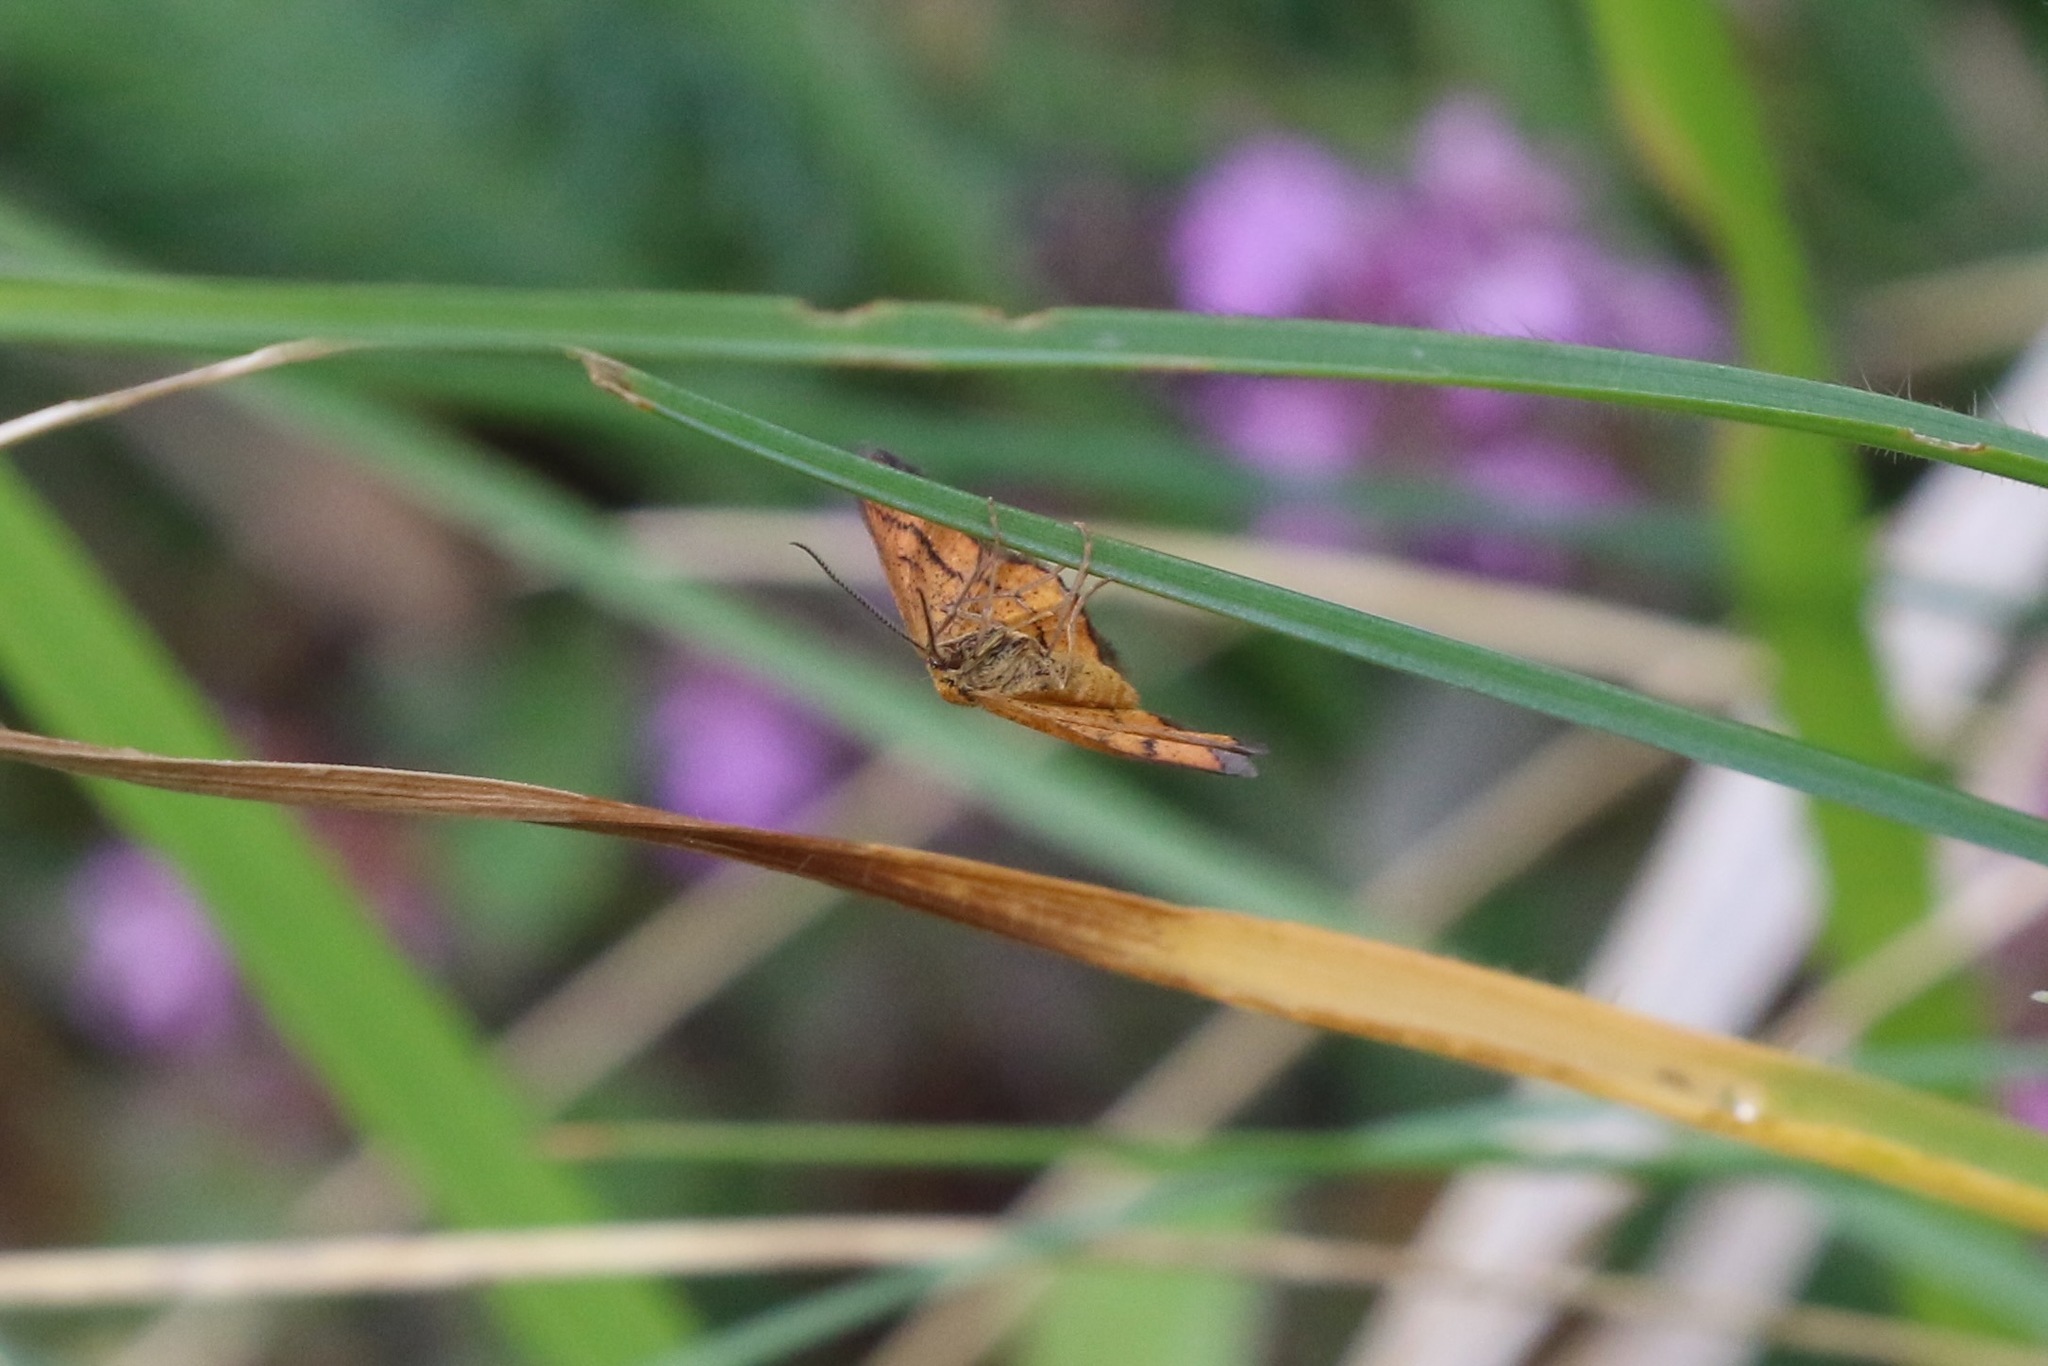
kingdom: Animalia
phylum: Arthropoda
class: Insecta
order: Lepidoptera
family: Geometridae
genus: Idaea
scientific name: Idaea flaveolaria
